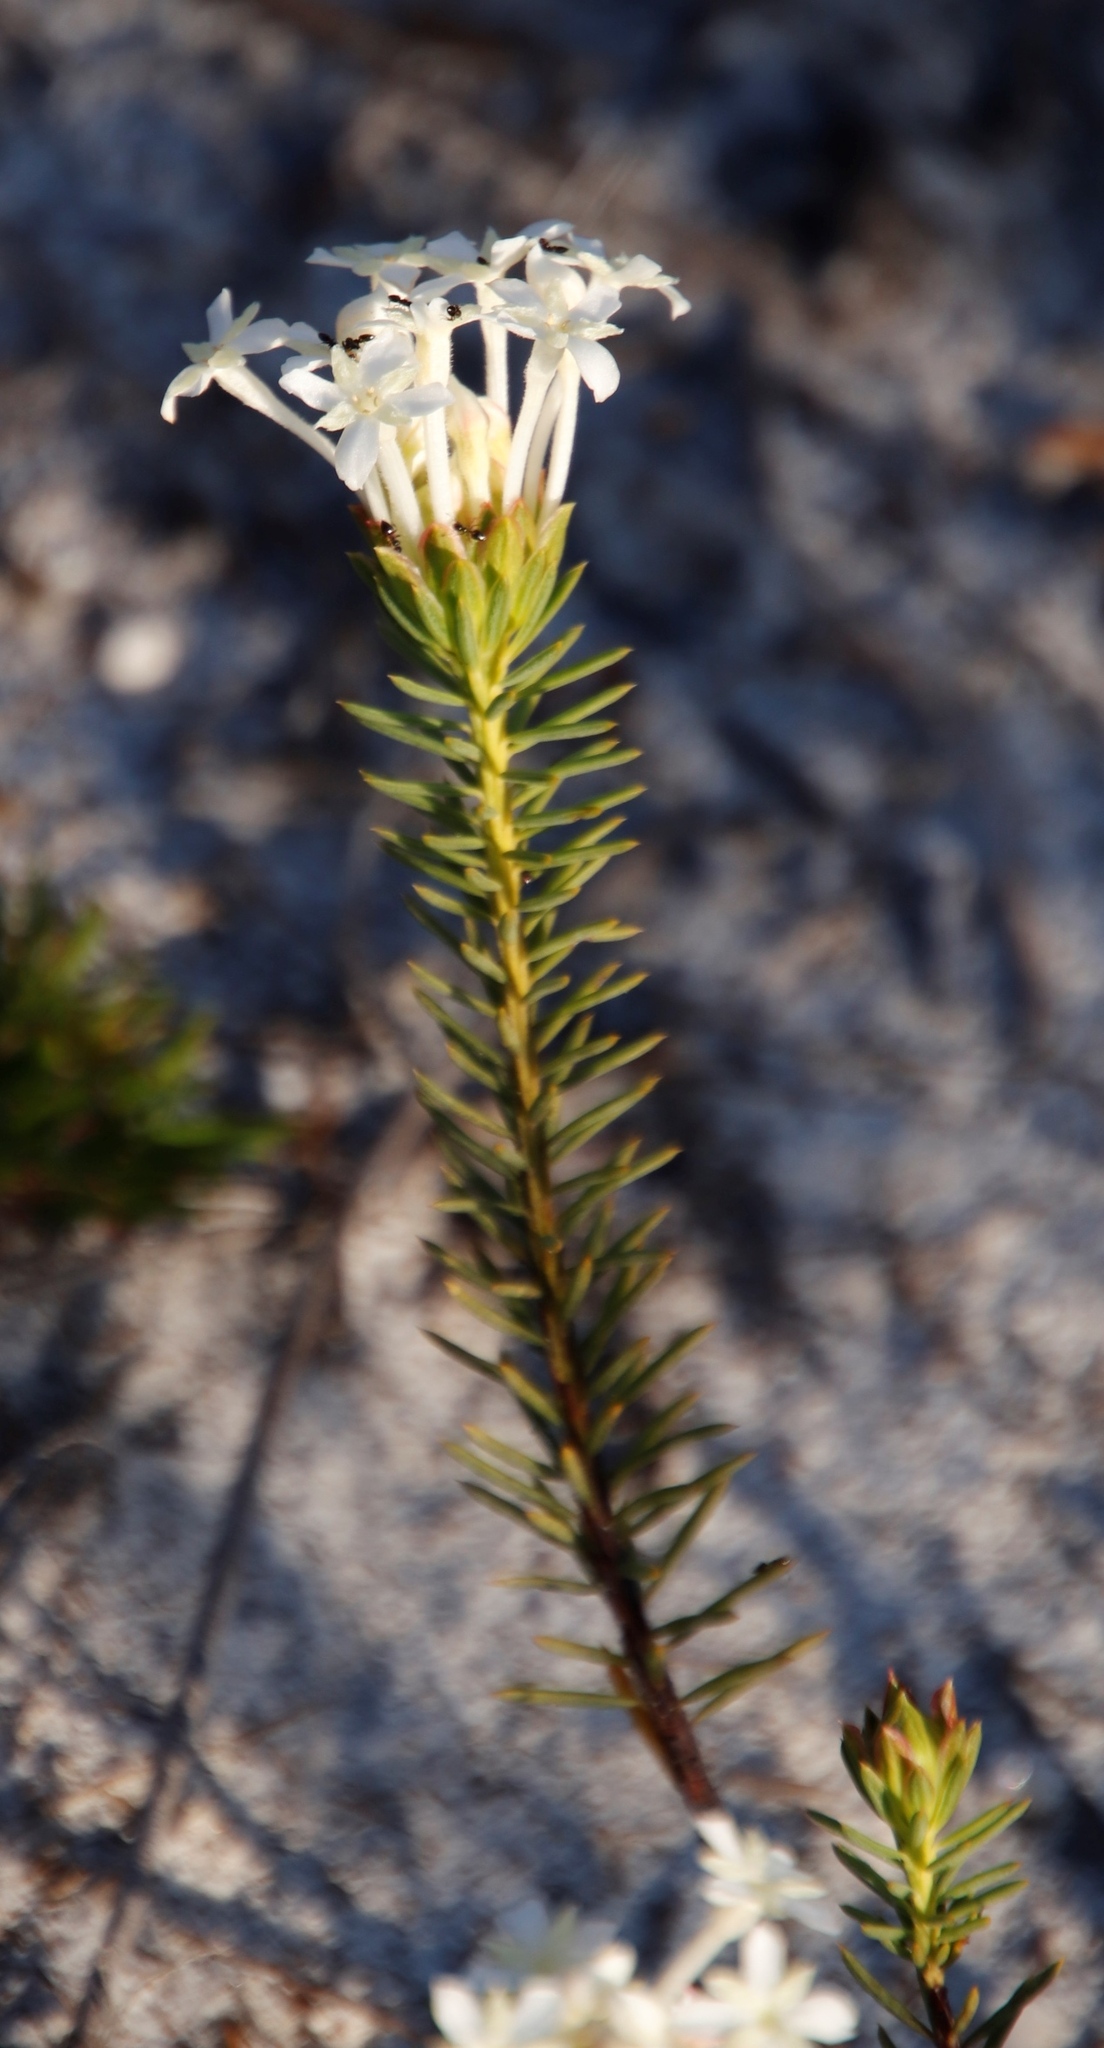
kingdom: Plantae
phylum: Tracheophyta
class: Magnoliopsida
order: Malvales
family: Thymelaeaceae
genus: Gnidia
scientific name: Gnidia pinifolia
